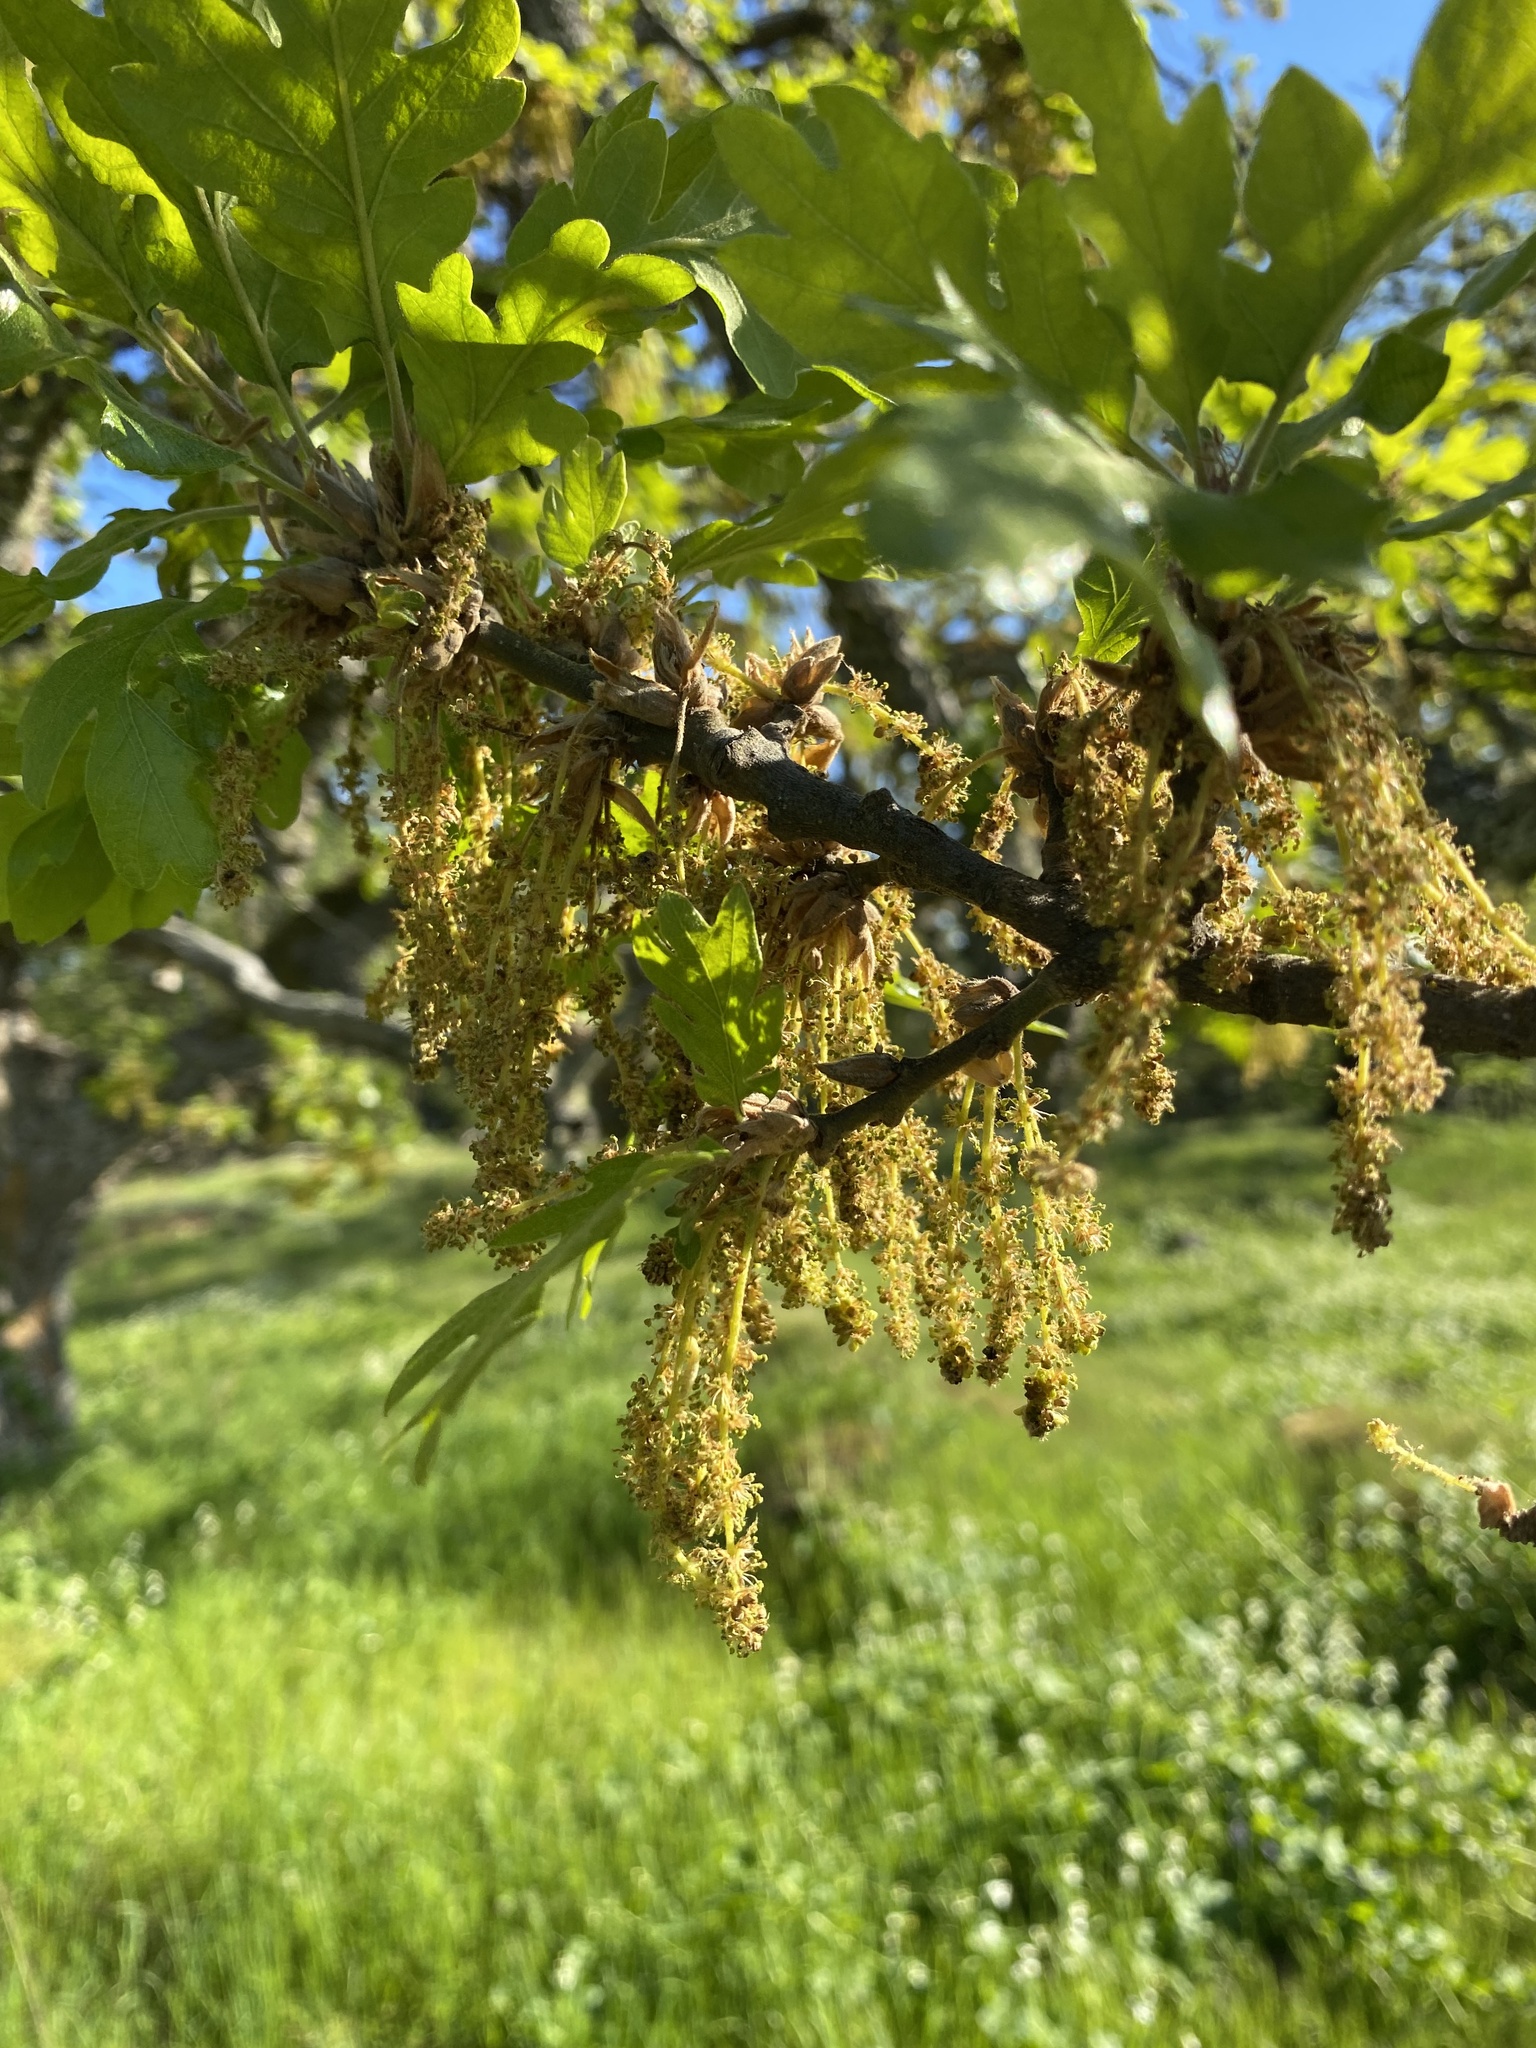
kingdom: Plantae
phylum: Tracheophyta
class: Magnoliopsida
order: Fagales
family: Fagaceae
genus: Quercus
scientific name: Quercus garryana
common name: Garry oak
